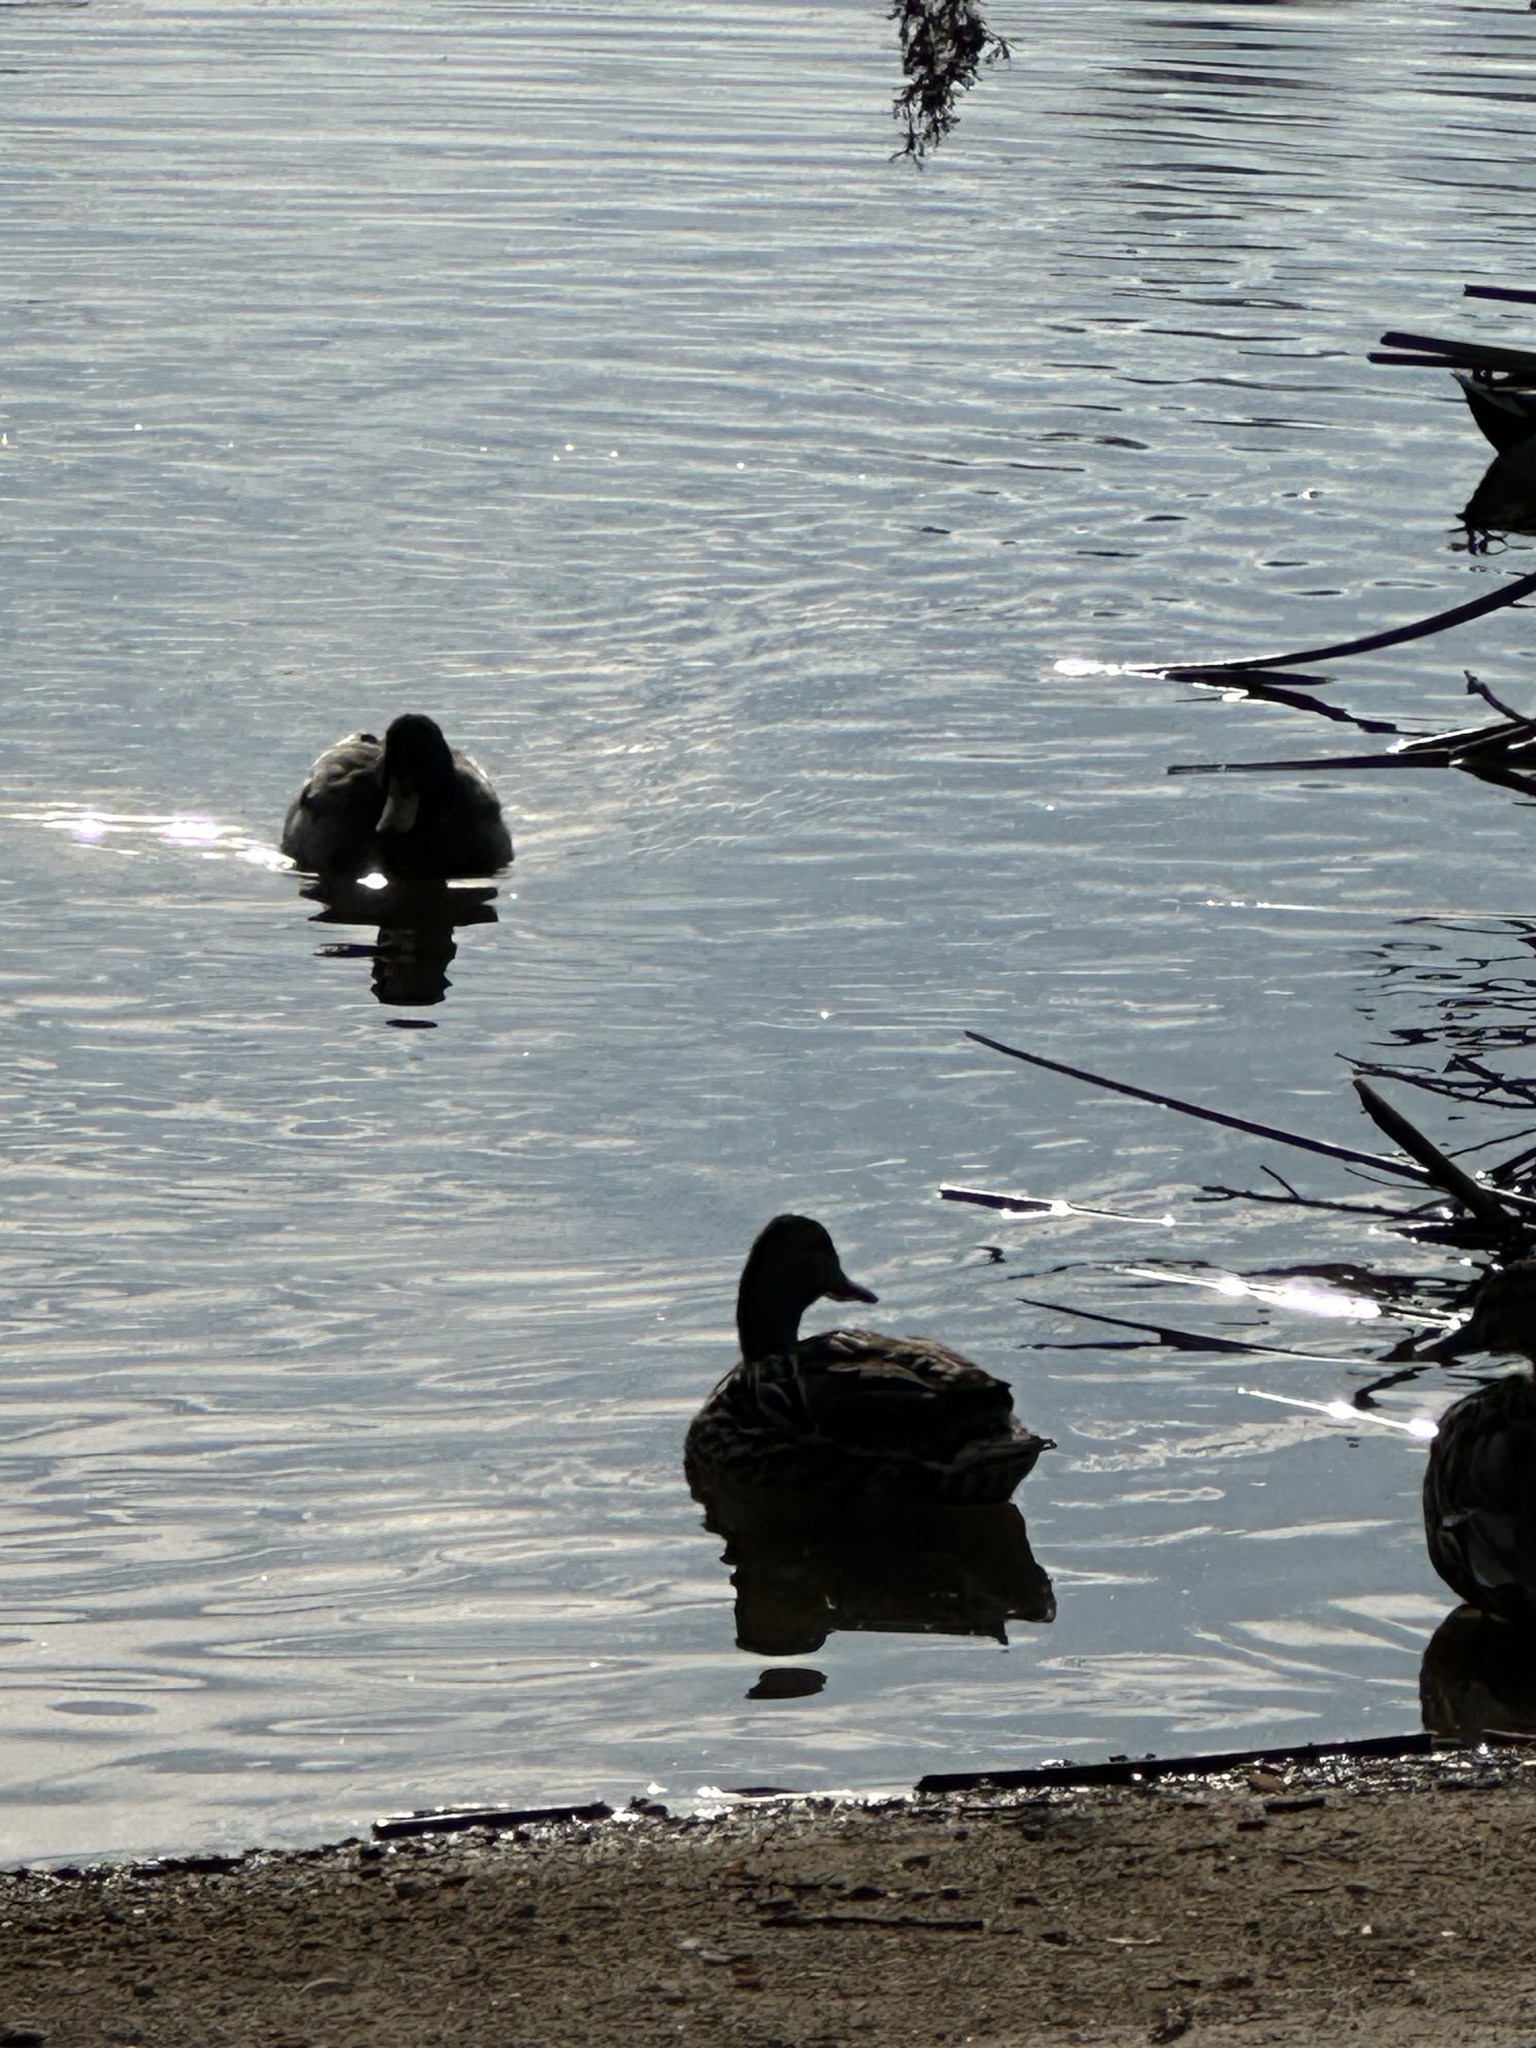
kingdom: Animalia
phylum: Chordata
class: Aves
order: Anseriformes
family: Anatidae
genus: Anas
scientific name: Anas platyrhynchos
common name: Mallard
